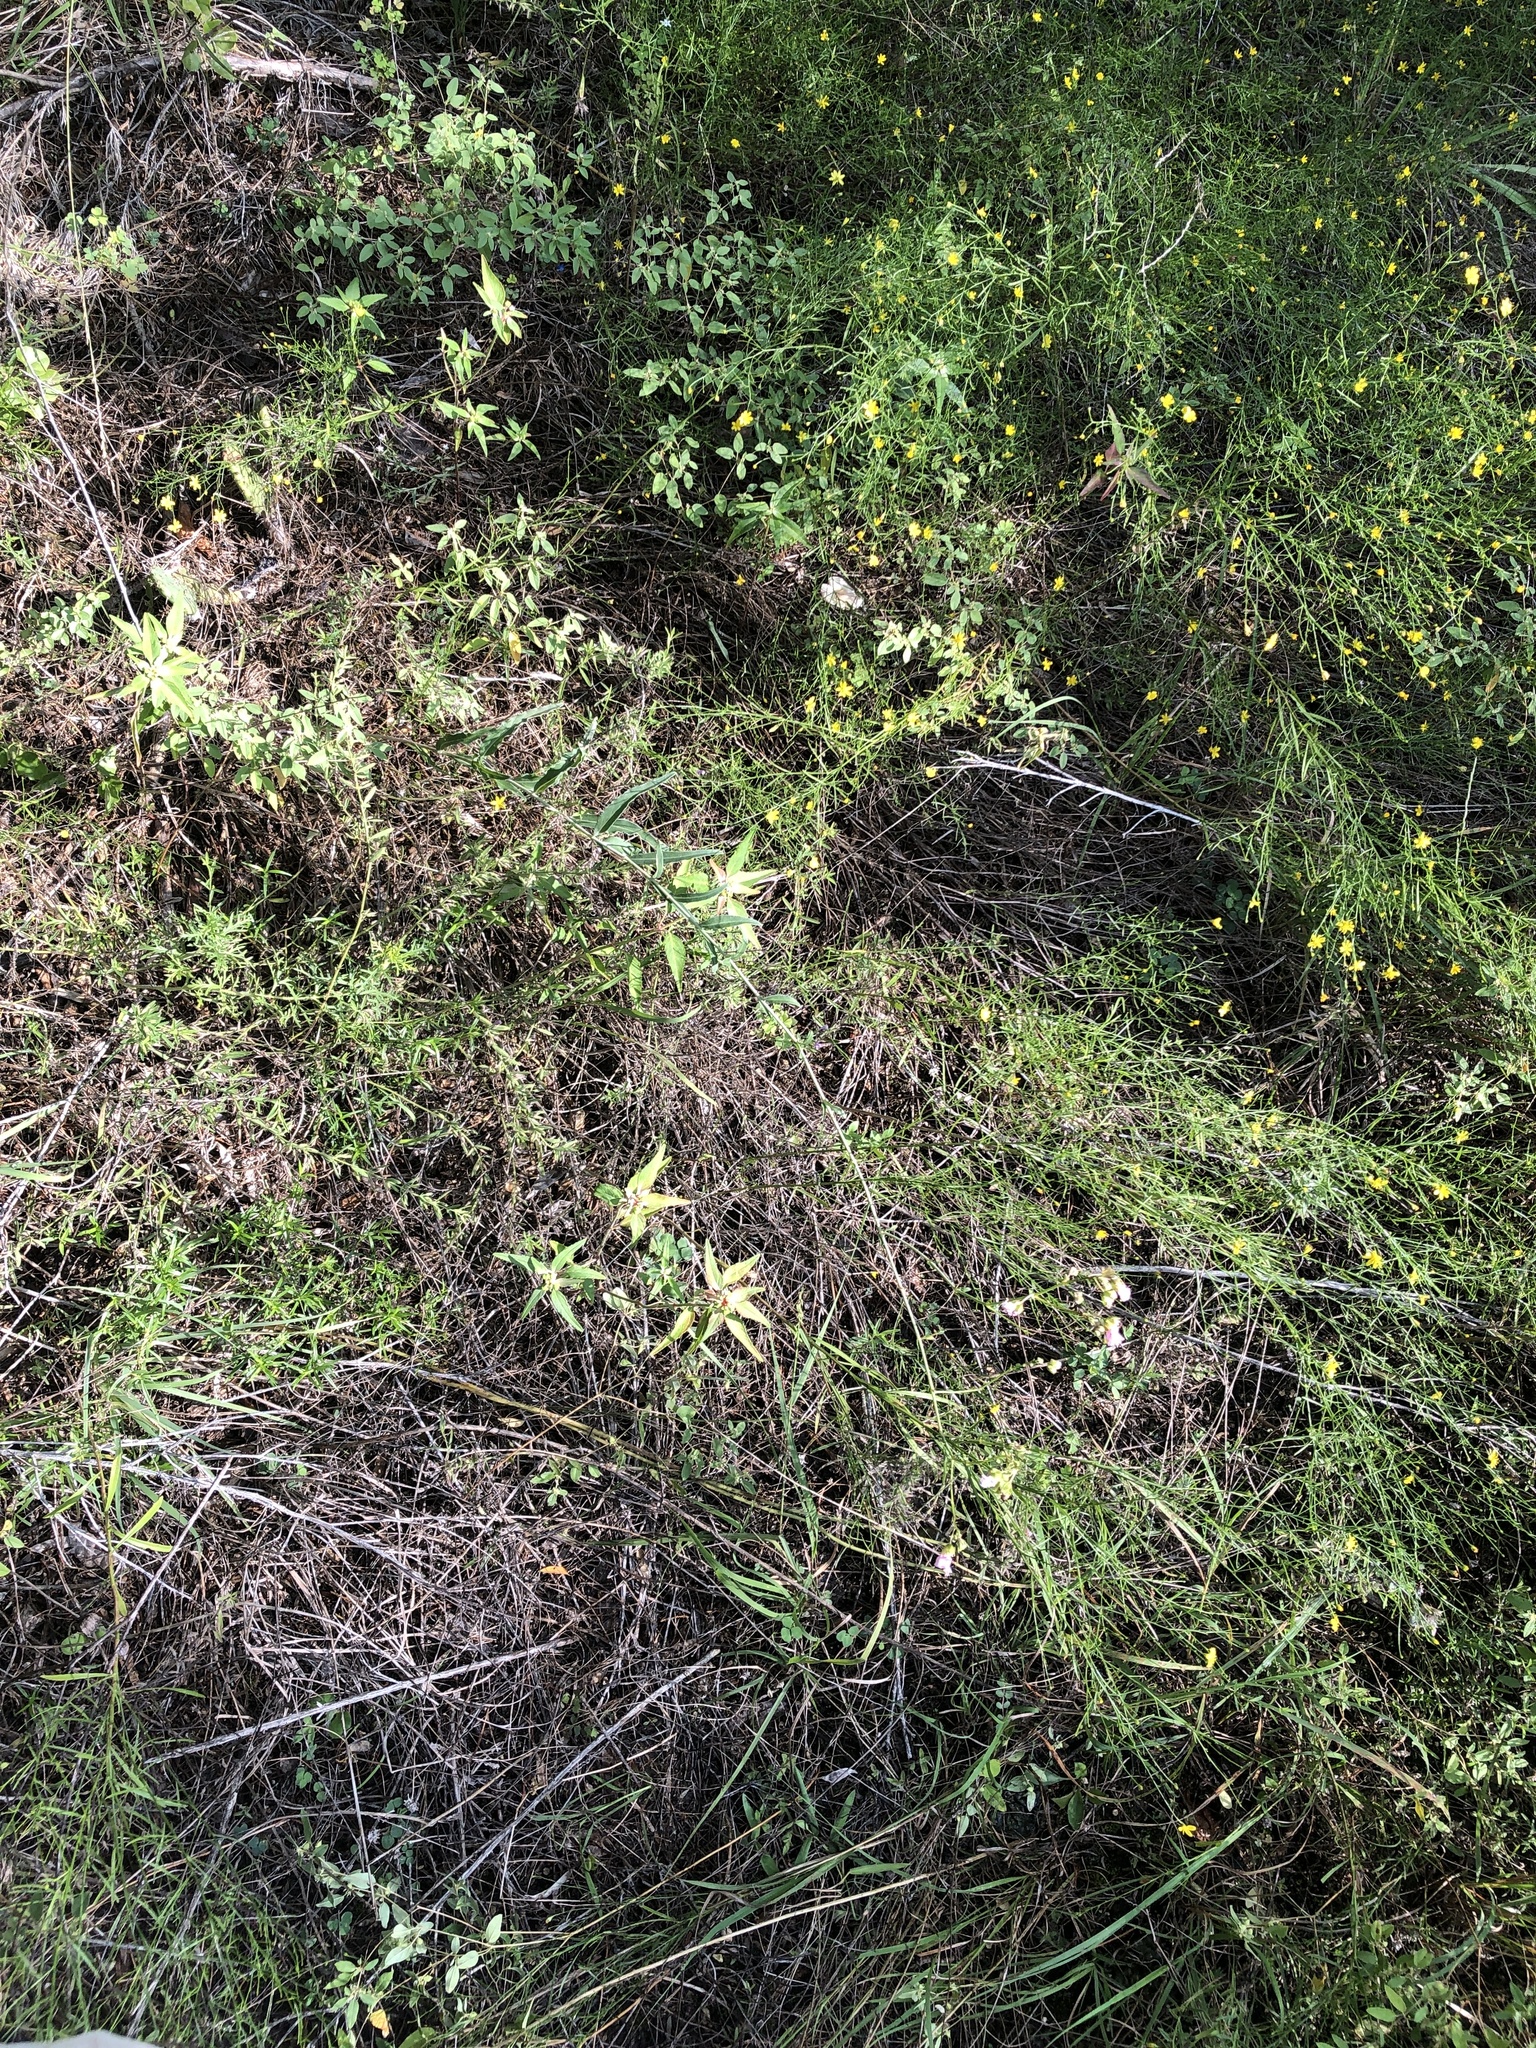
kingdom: Plantae
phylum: Tracheophyta
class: Magnoliopsida
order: Caryophyllales
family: Nyctaginaceae
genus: Mirabilis
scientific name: Mirabilis albida
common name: Hairy four-o'clock
